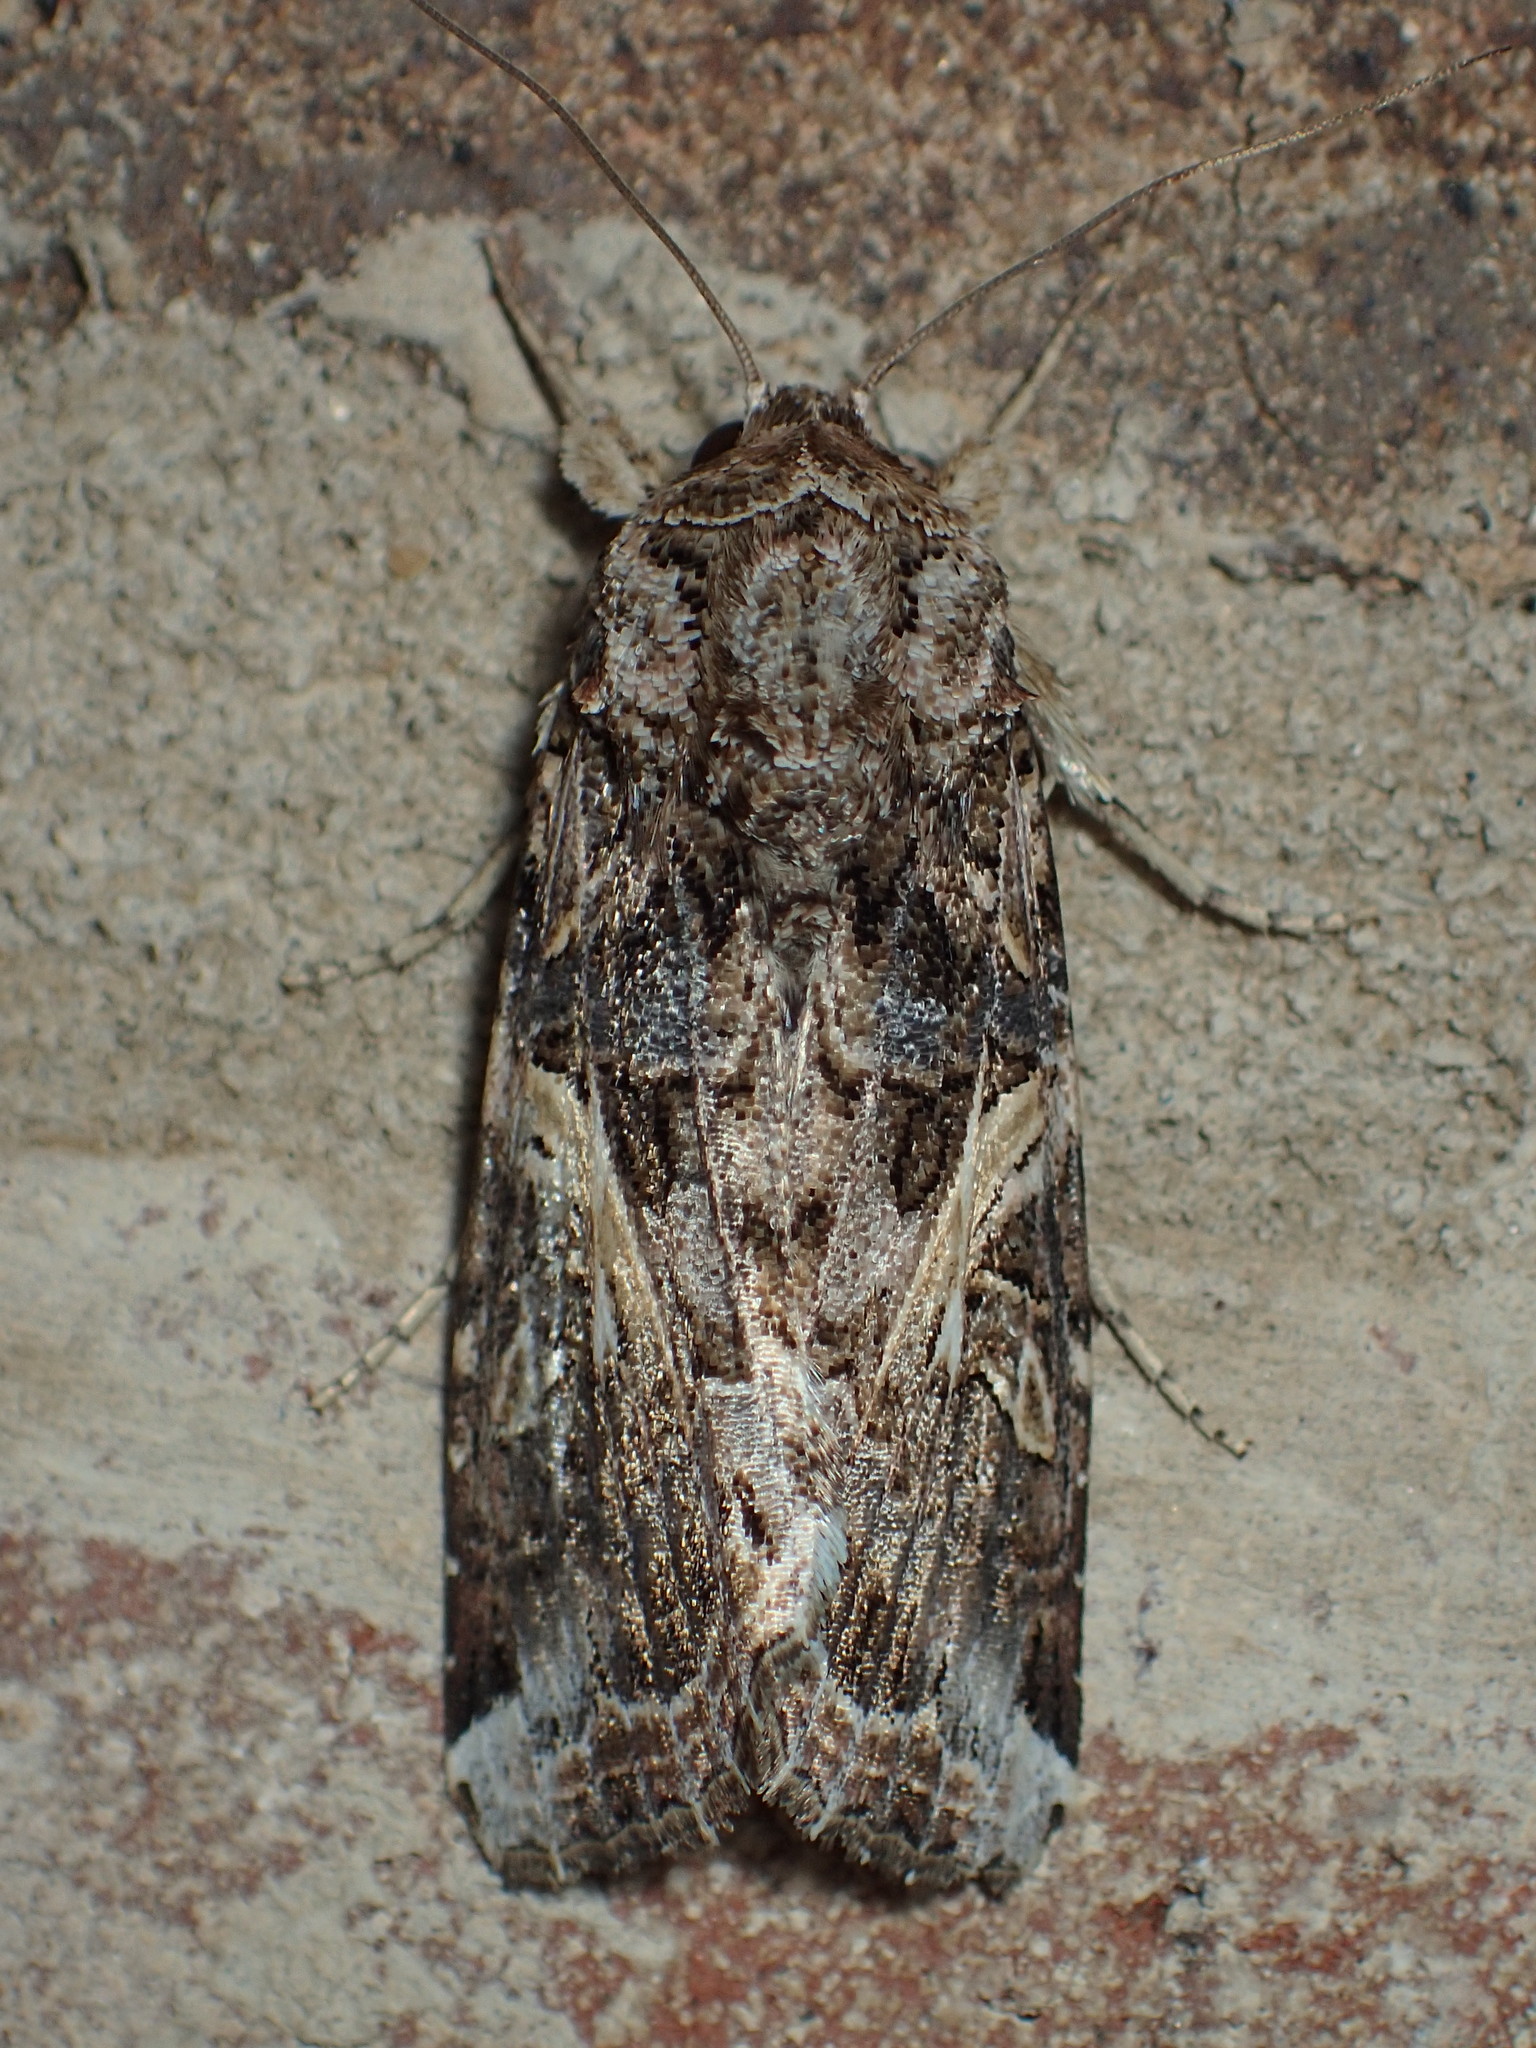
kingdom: Animalia
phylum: Arthropoda
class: Insecta
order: Lepidoptera
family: Noctuidae
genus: Spodoptera
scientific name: Spodoptera ornithogalli
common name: Yellow-striped armyworm
